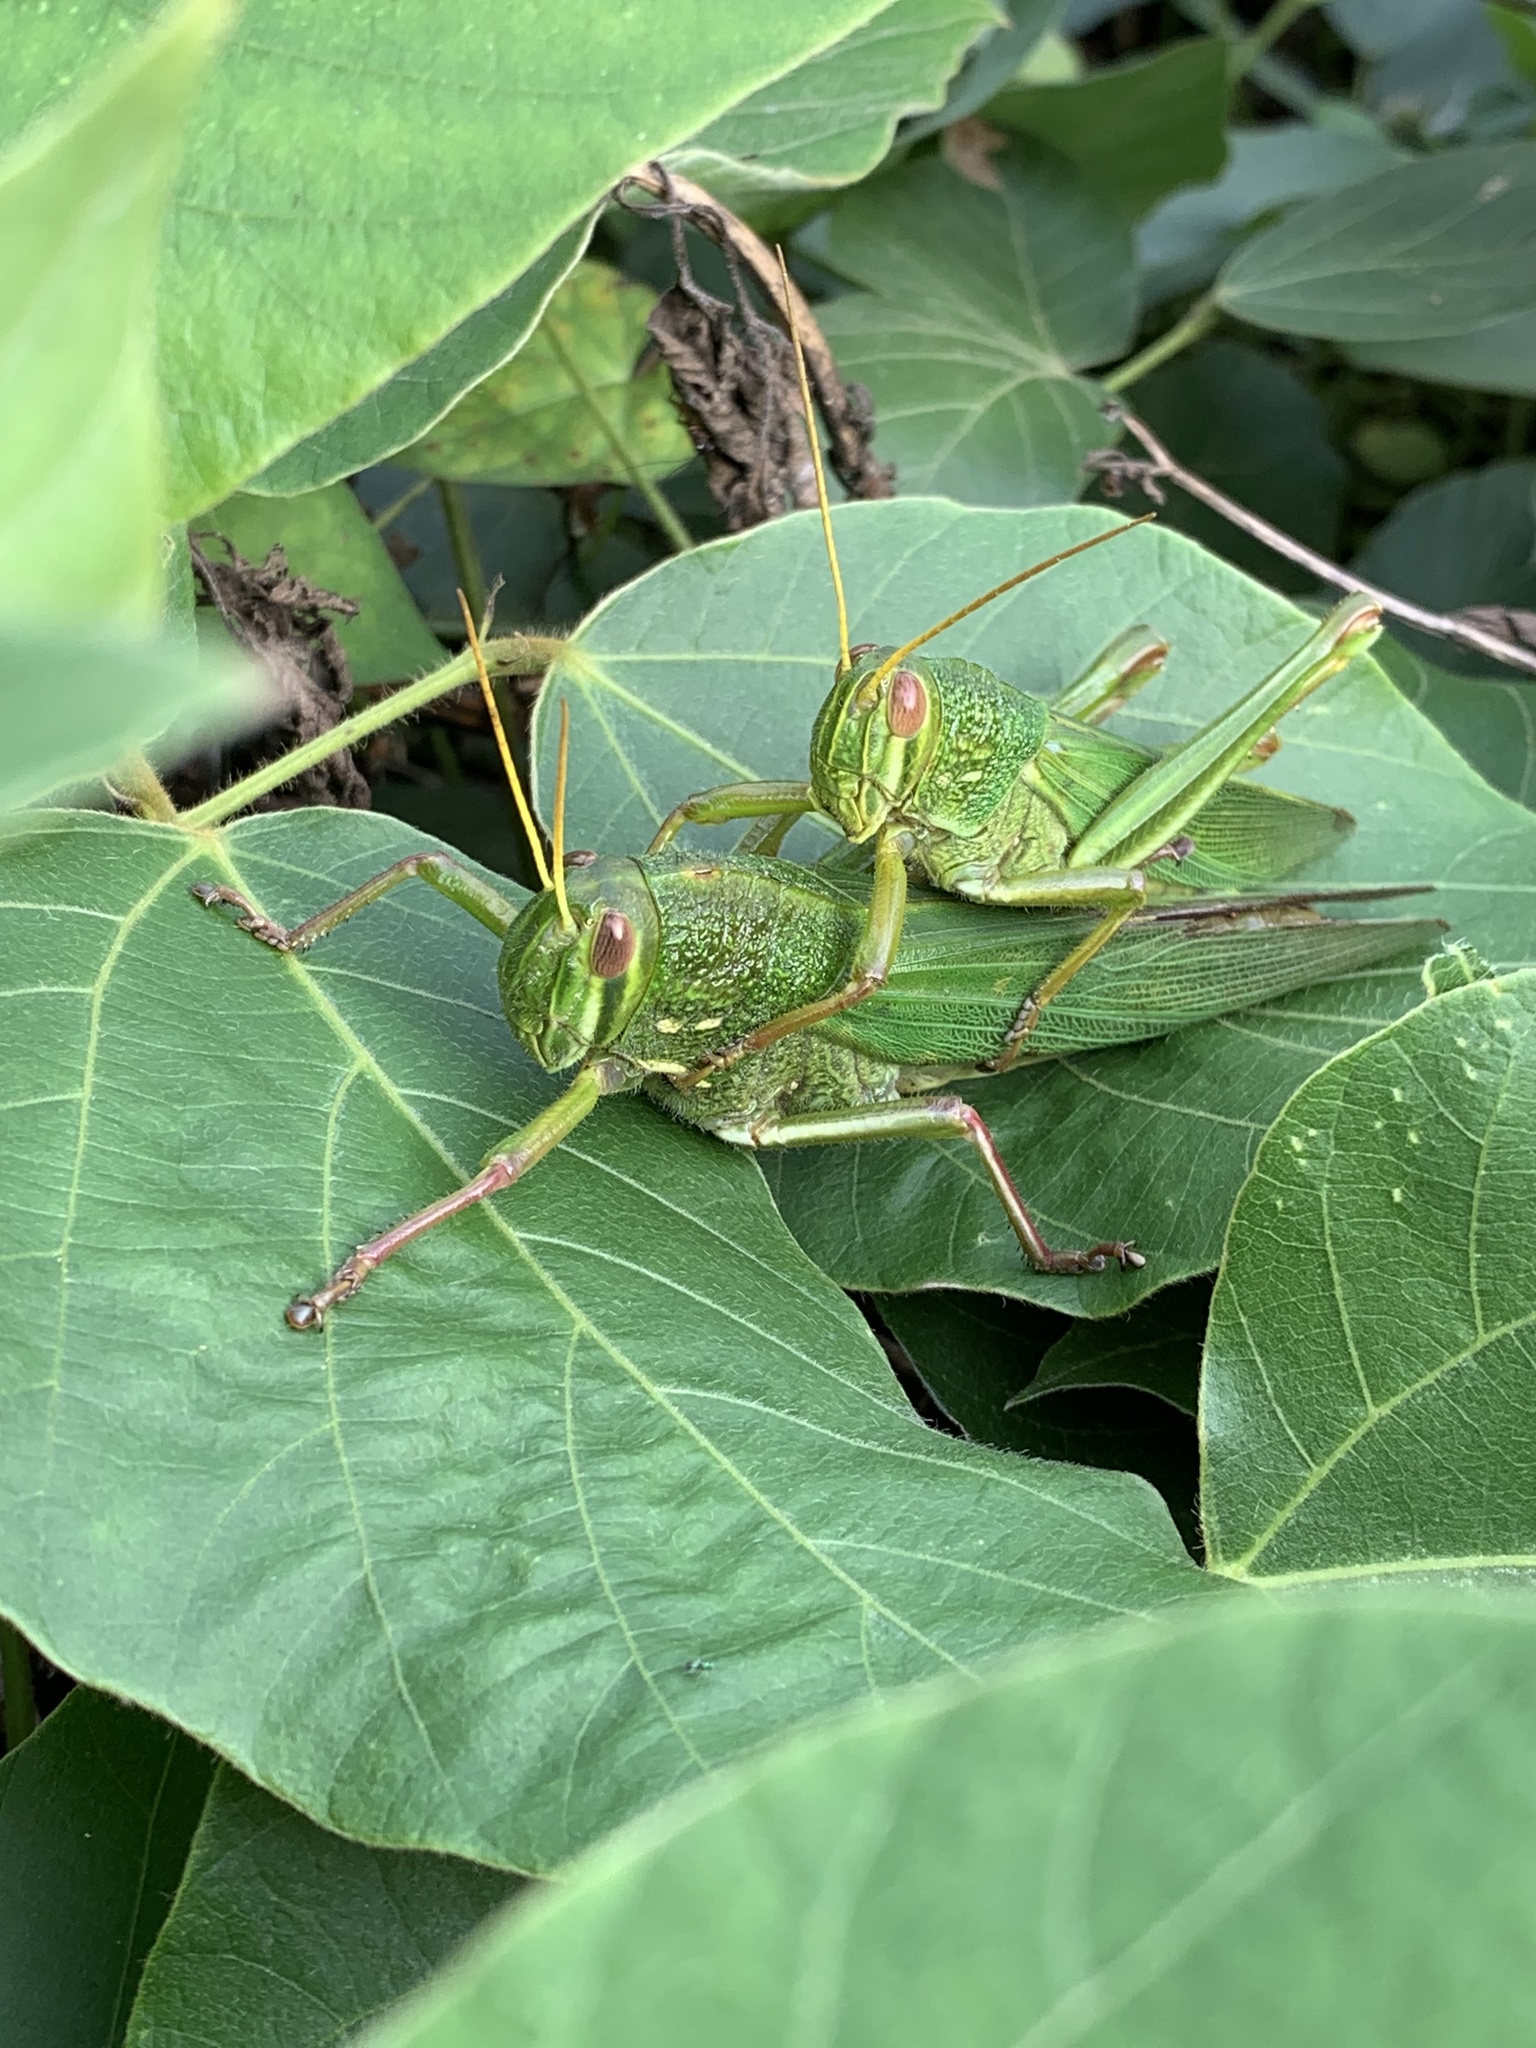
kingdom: Animalia
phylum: Arthropoda
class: Insecta
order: Orthoptera
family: Acrididae
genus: Chondracris
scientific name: Chondracris rosea
